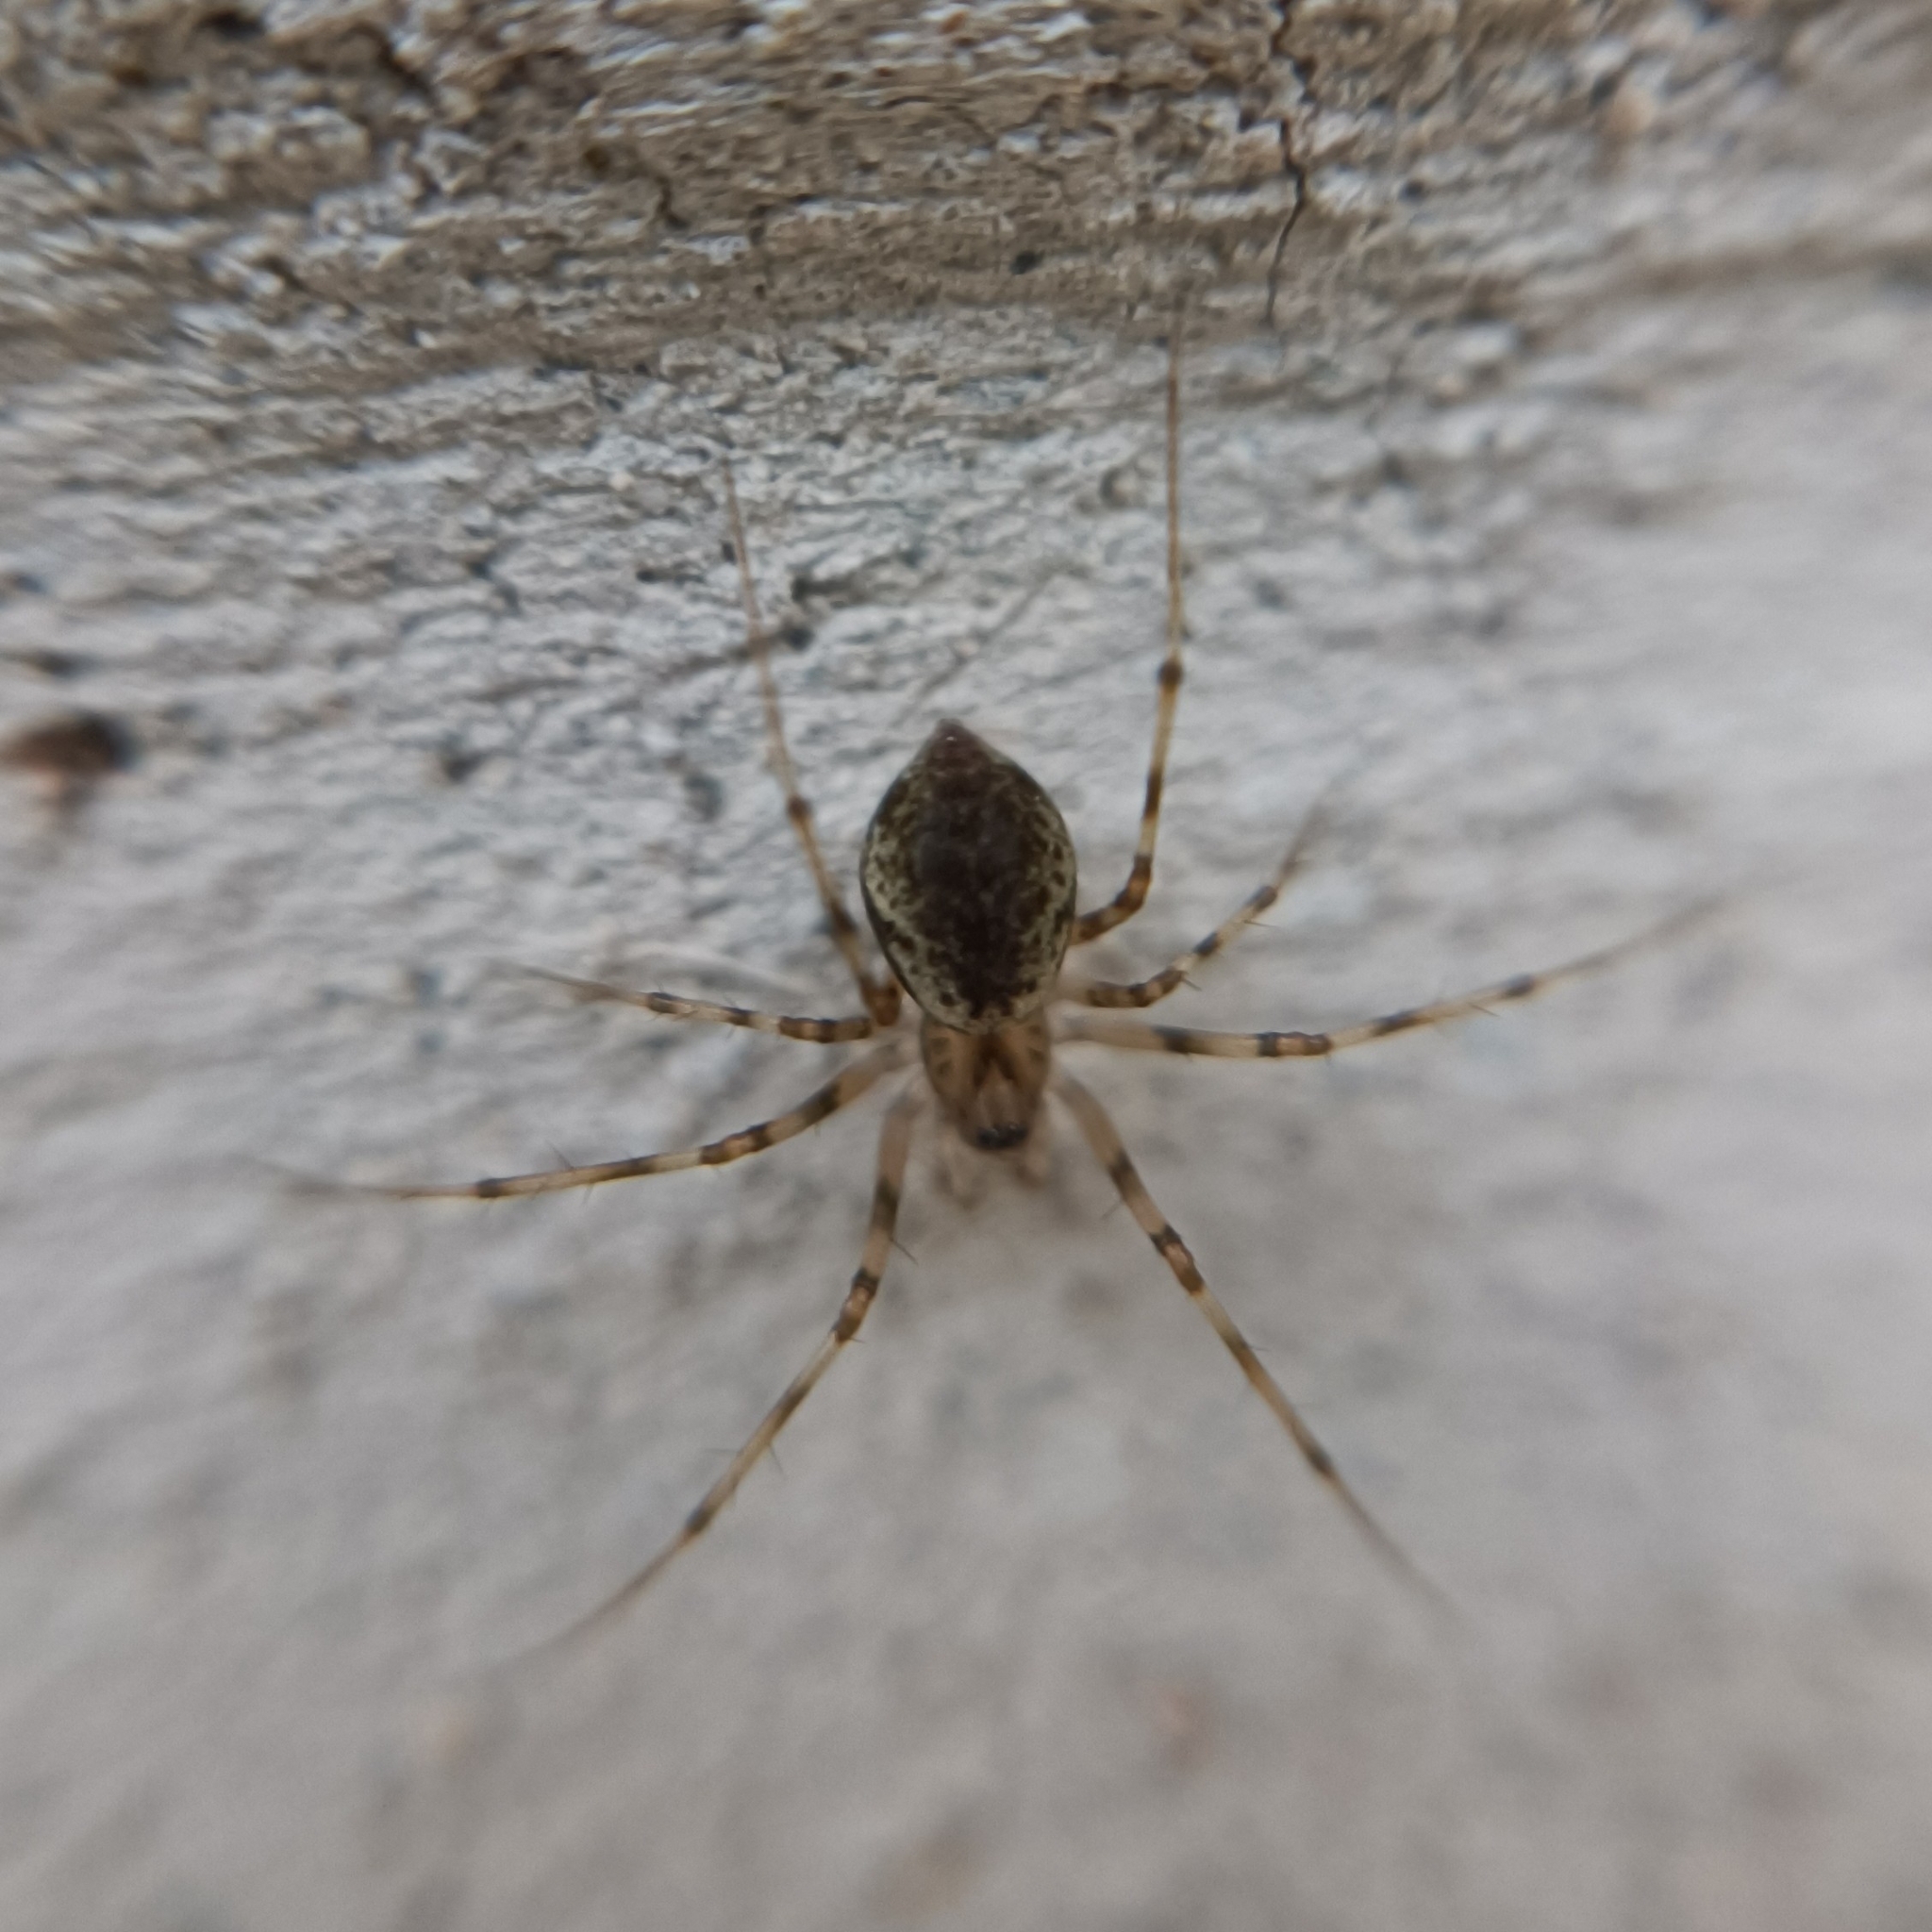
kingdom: Animalia
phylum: Arthropoda
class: Arachnida
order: Araneae
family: Linyphiidae
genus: Drapetisca
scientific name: Drapetisca socialis
